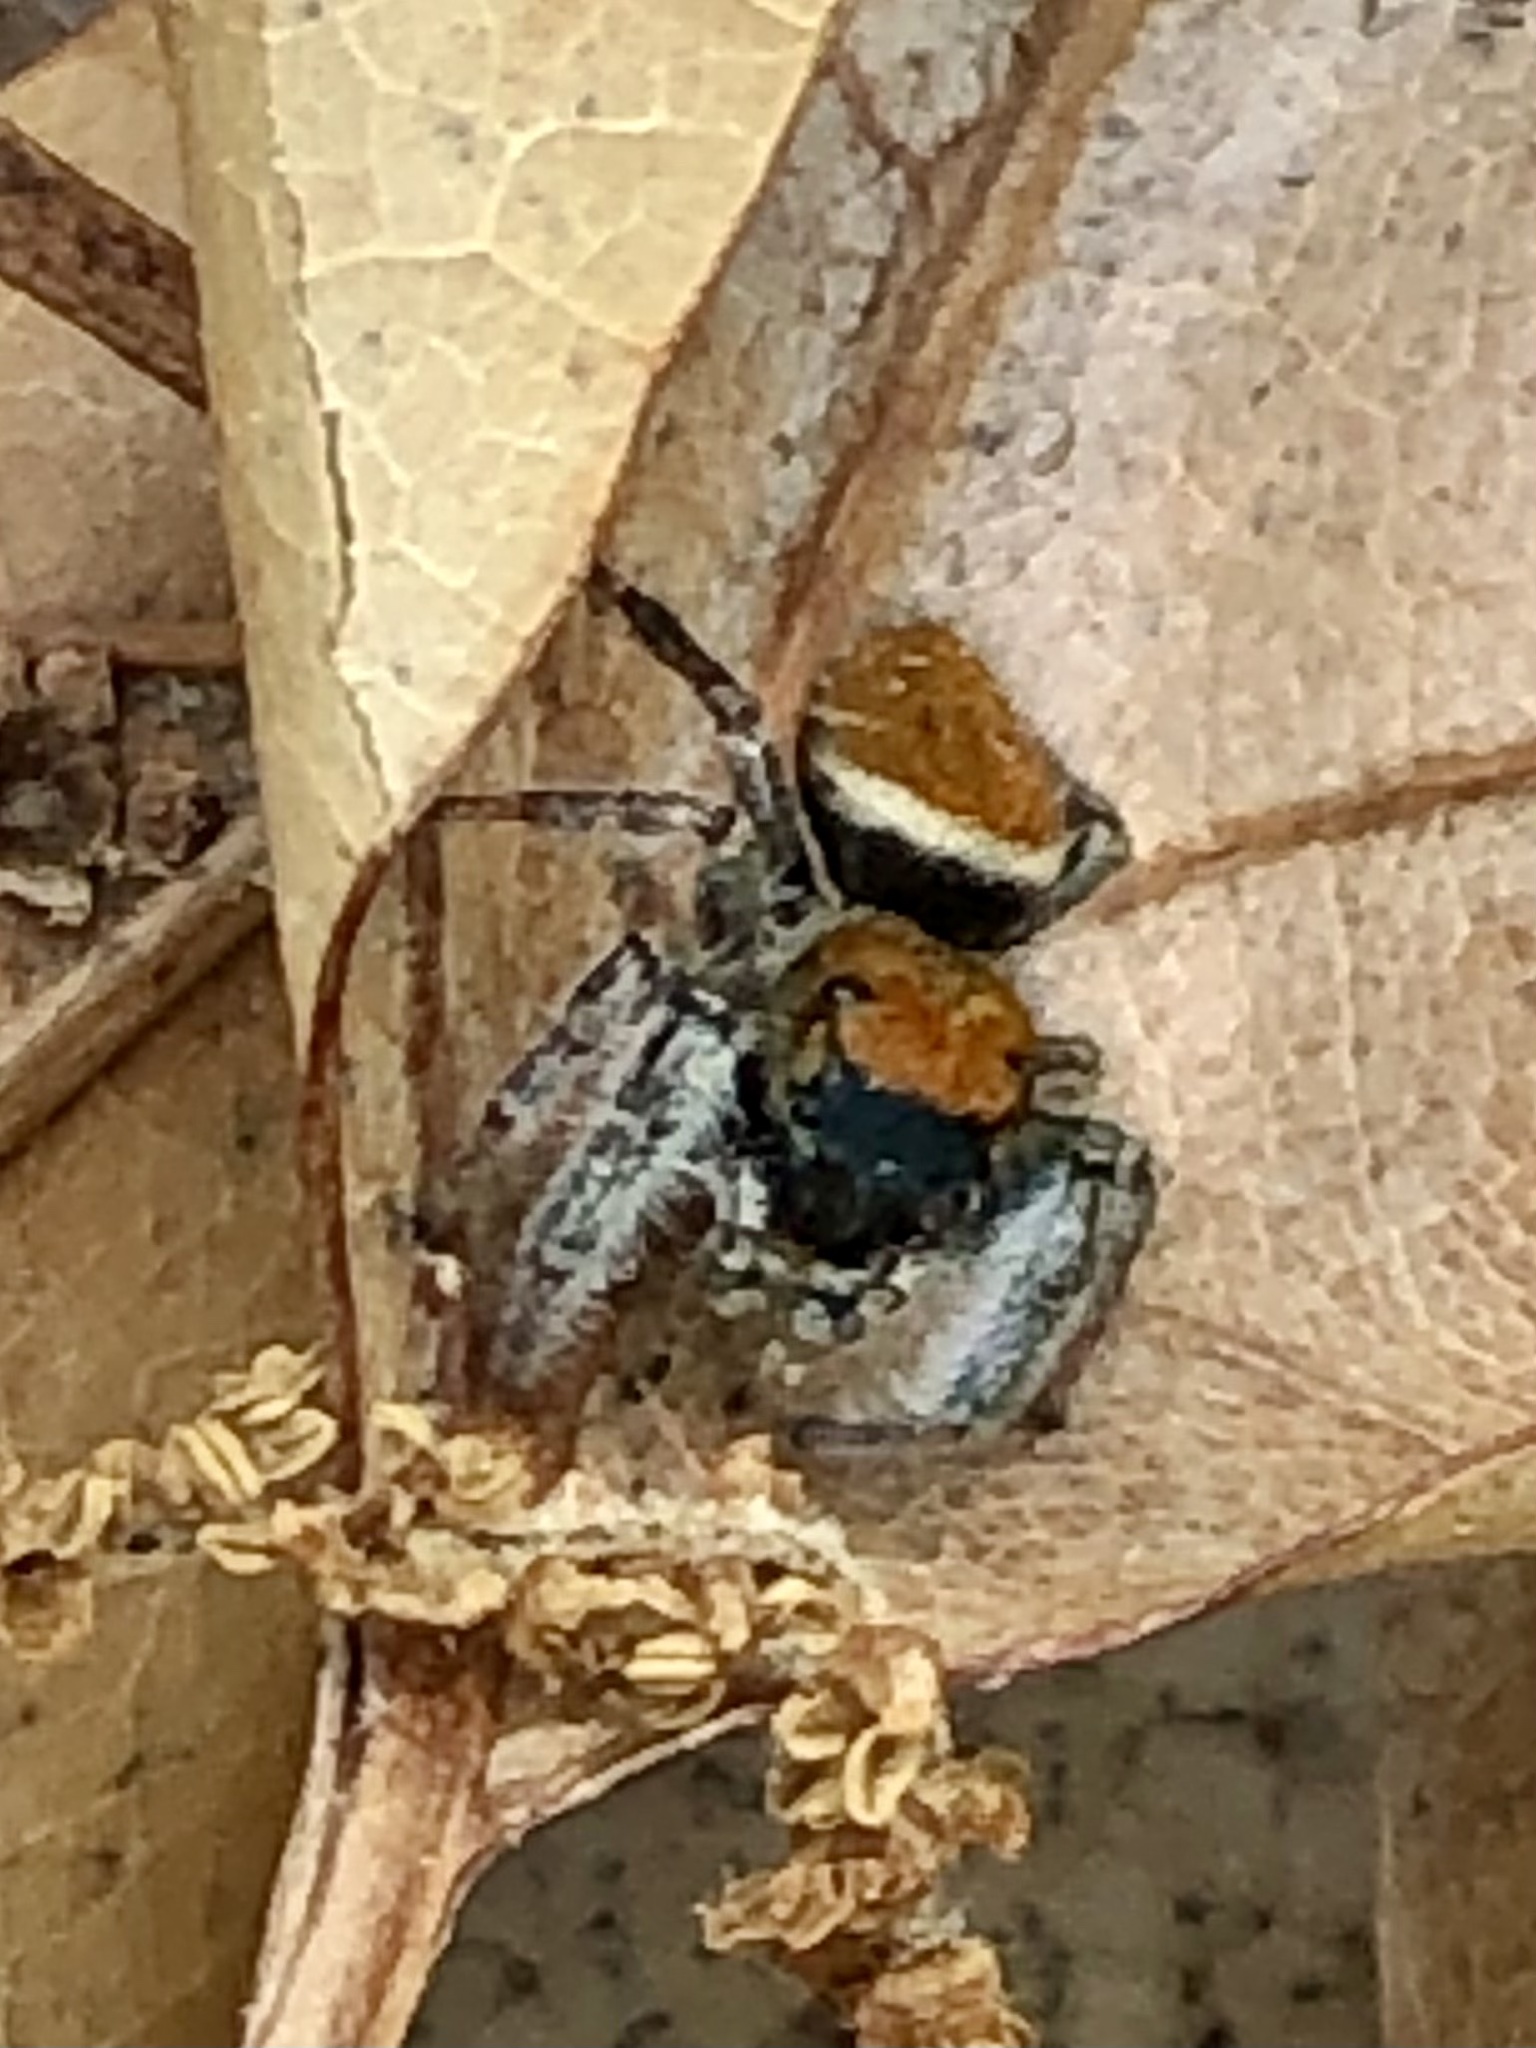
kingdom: Animalia
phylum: Arthropoda
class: Arachnida
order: Araneae
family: Salticidae
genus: Phidippus
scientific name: Phidippus whitmani
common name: Whitman's jumping spider
